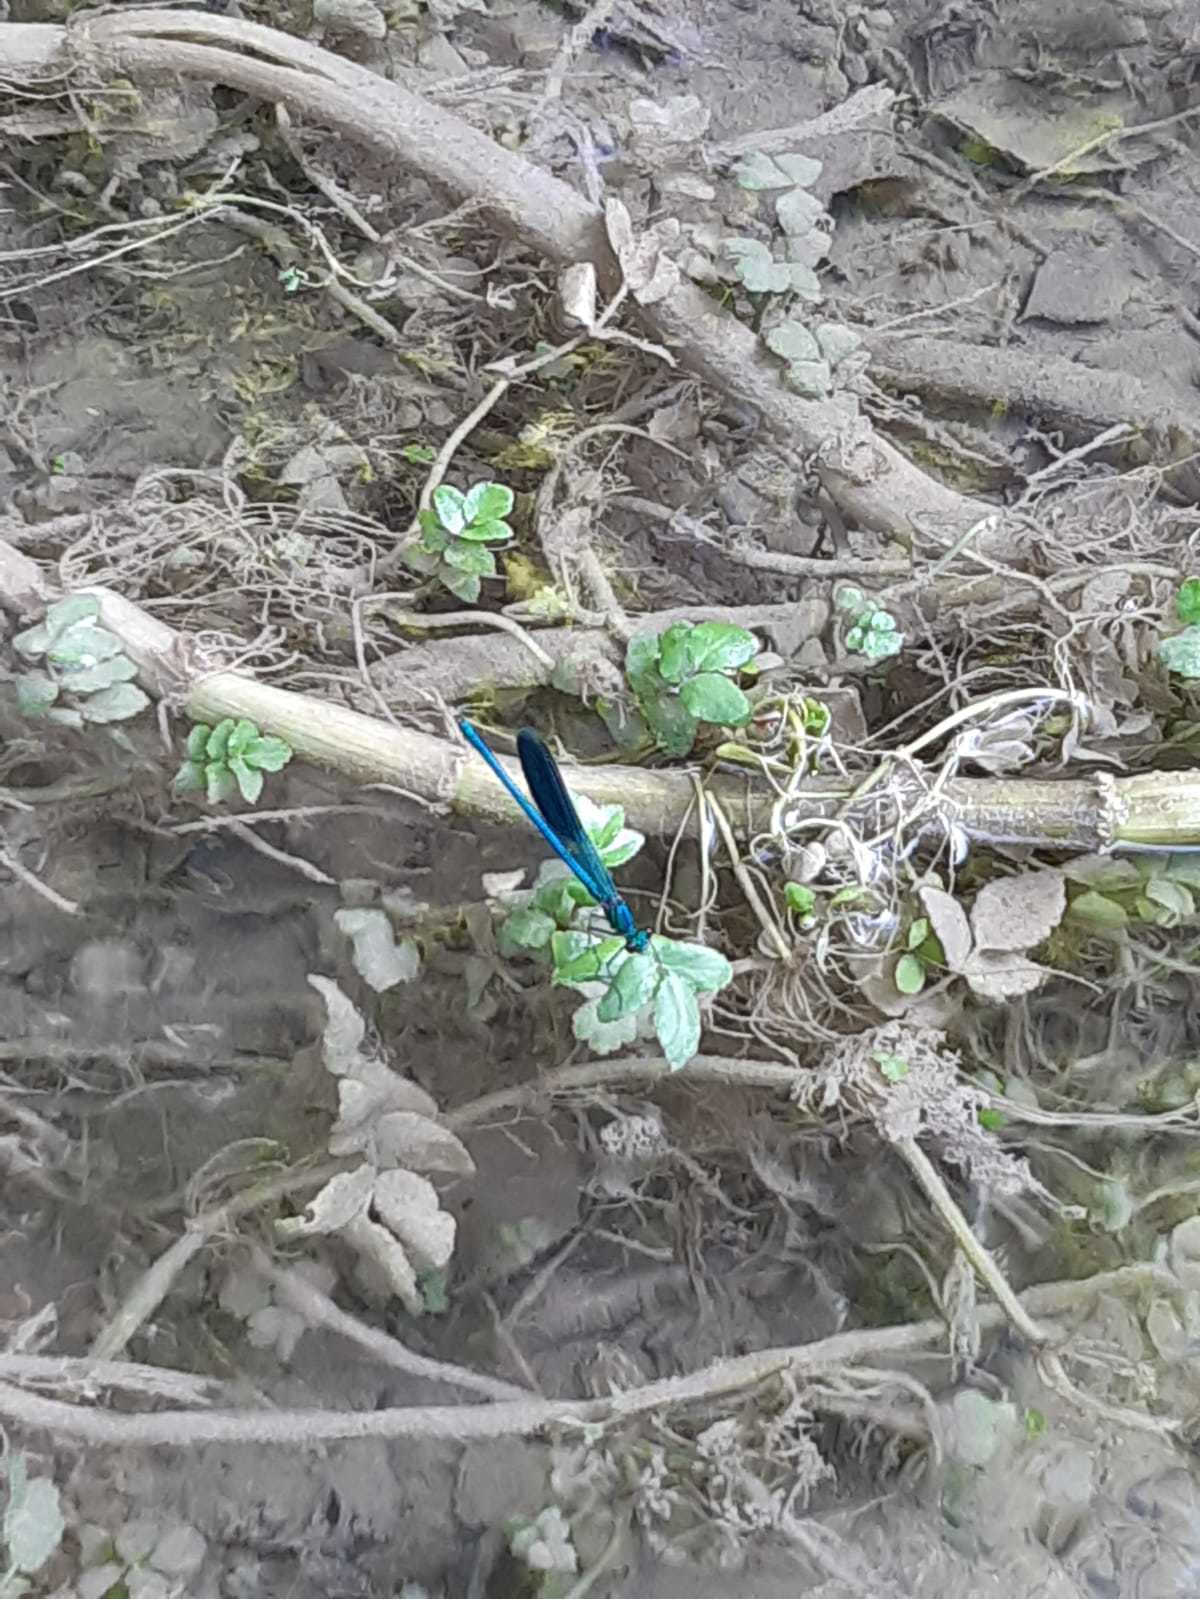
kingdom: Animalia
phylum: Arthropoda
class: Insecta
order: Odonata
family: Calopterygidae
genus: Calopteryx
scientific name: Calopteryx splendens
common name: Banded demoiselle
